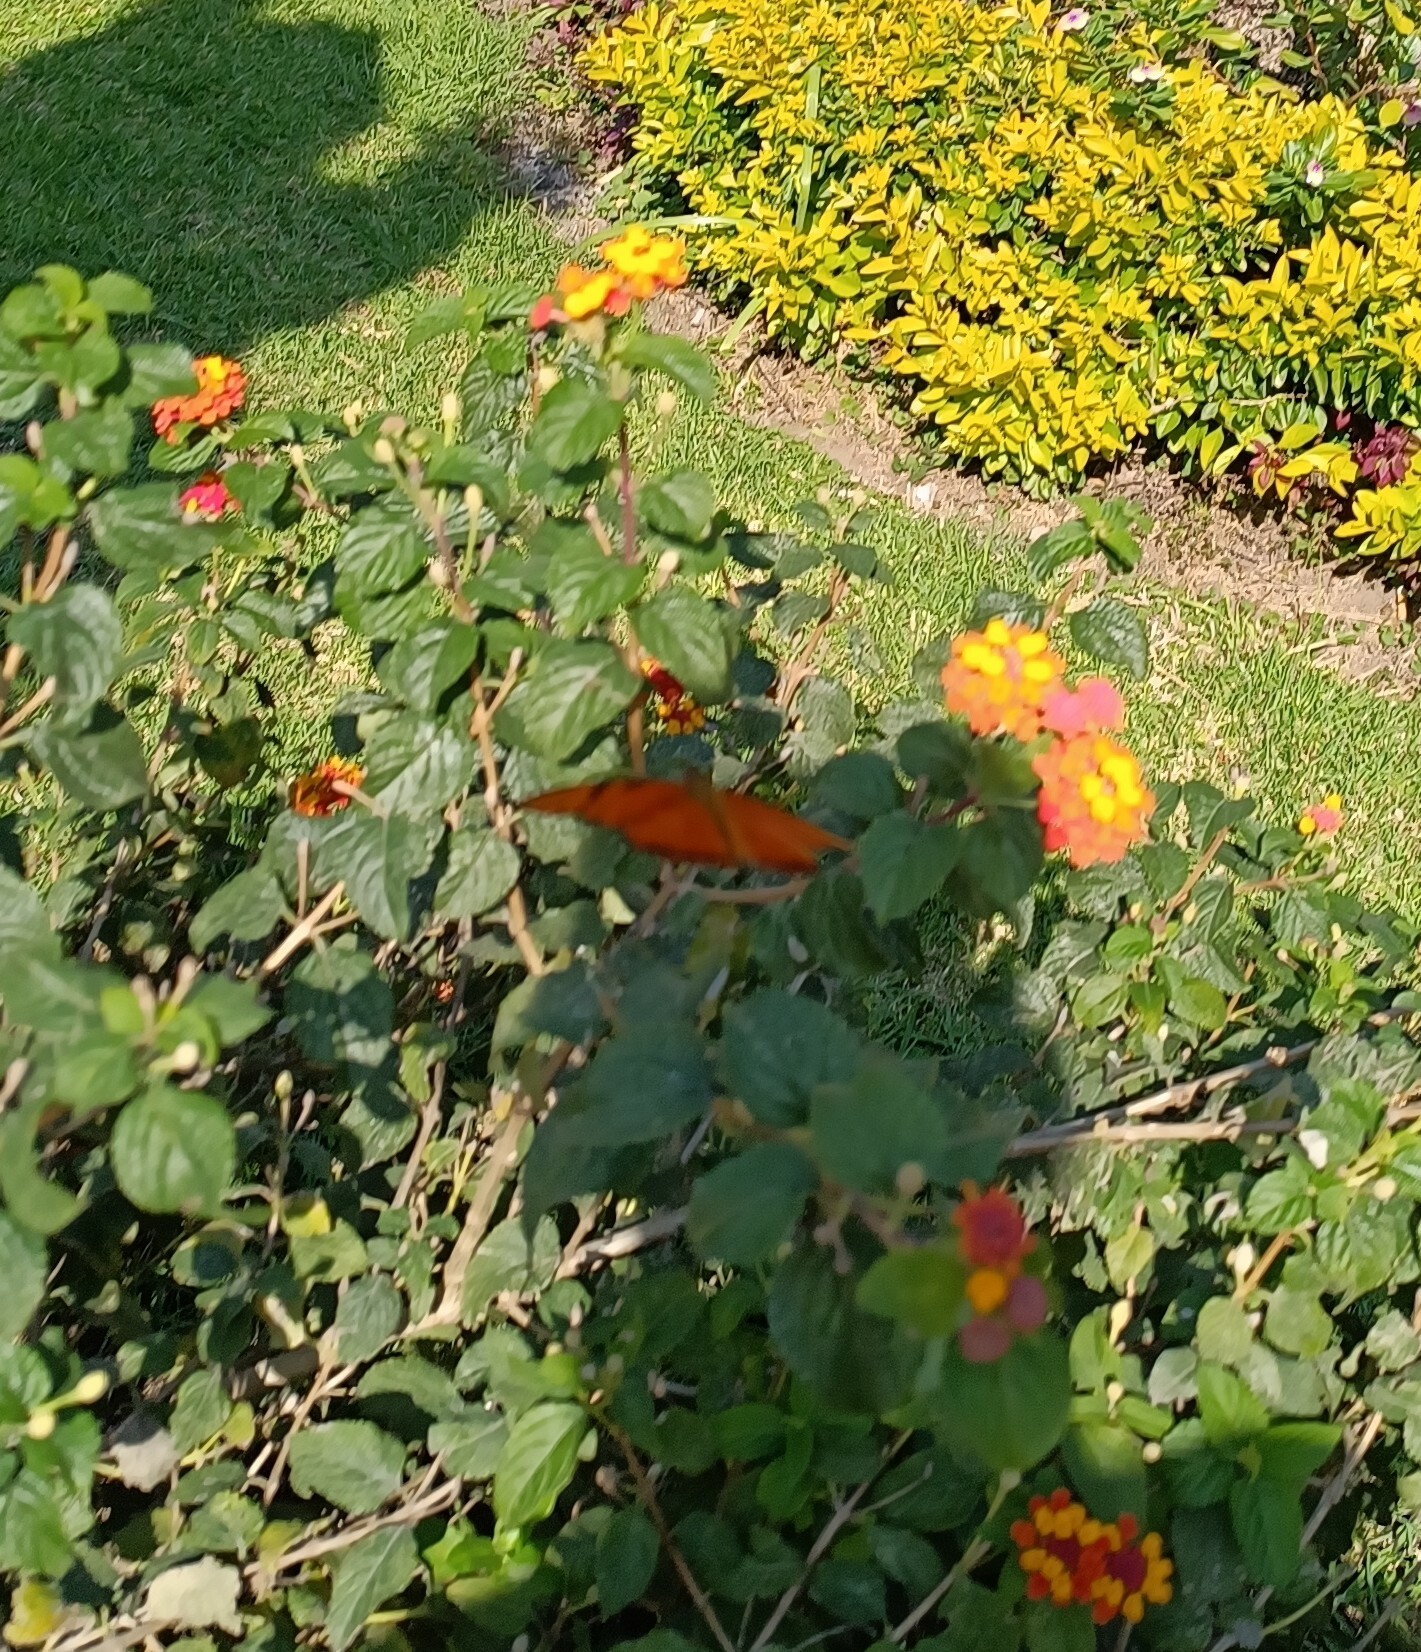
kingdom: Animalia
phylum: Arthropoda
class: Insecta
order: Lepidoptera
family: Nymphalidae
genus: Dryas
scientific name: Dryas iulia
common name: Flambeau
